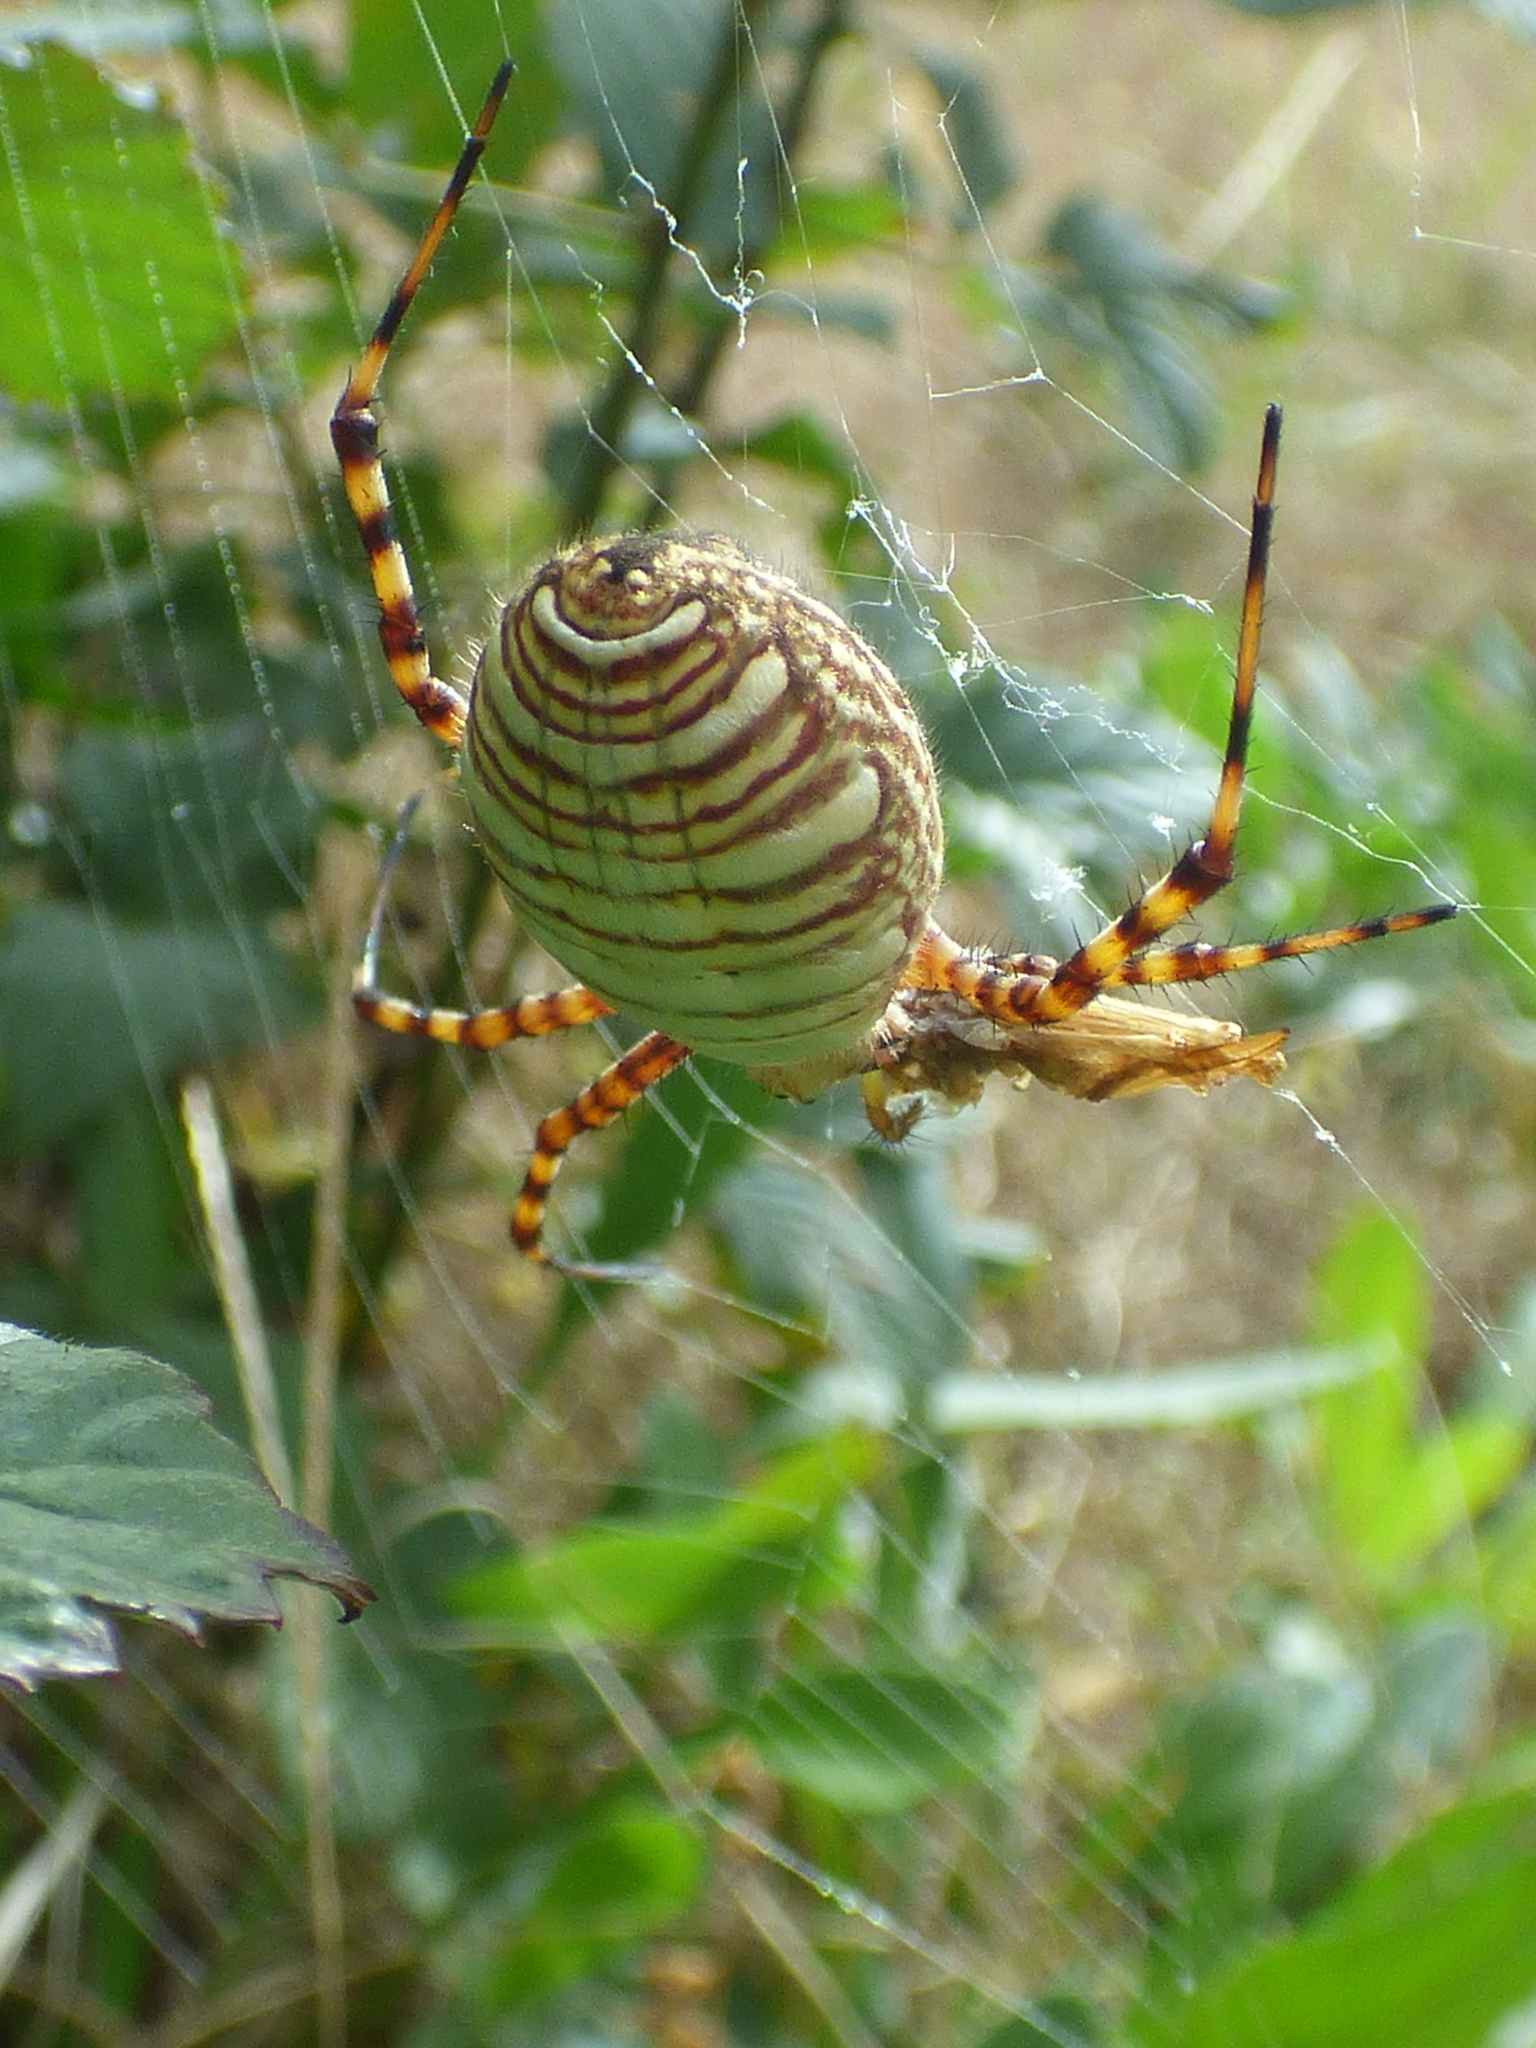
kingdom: Animalia
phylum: Arthropoda
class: Arachnida
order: Araneae
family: Araneidae
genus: Argiope
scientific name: Argiope trifasciata
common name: Banded garden spider
